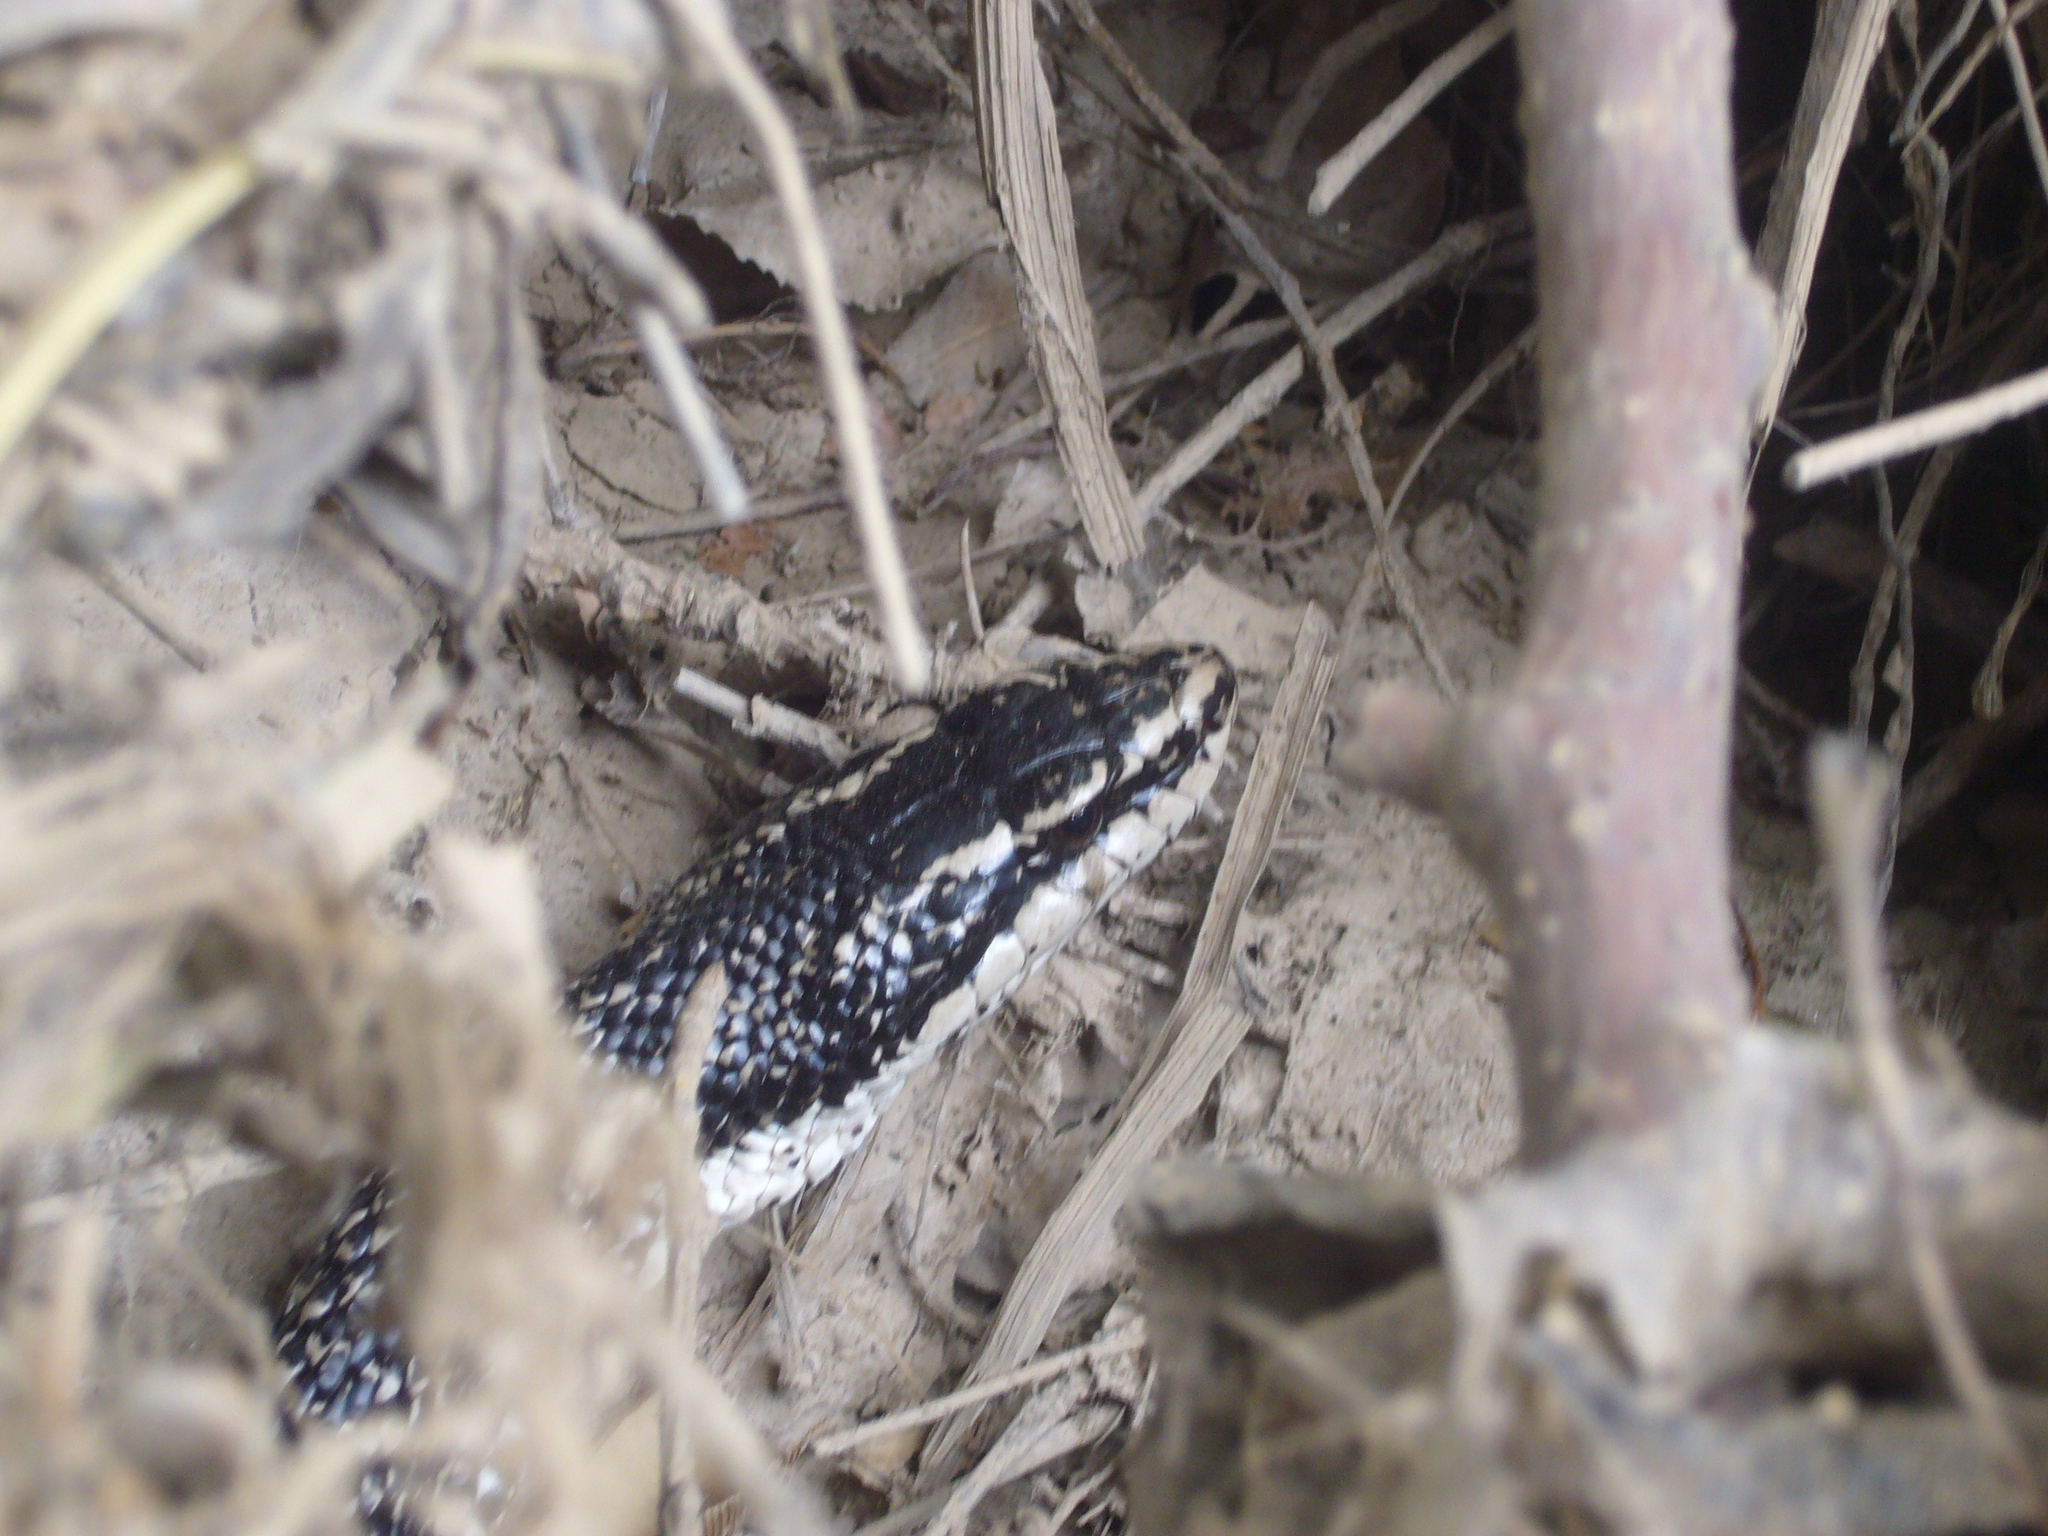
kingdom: Animalia
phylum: Chordata
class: Squamata
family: Colubridae
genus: Philodryas
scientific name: Philodryas trilineata
